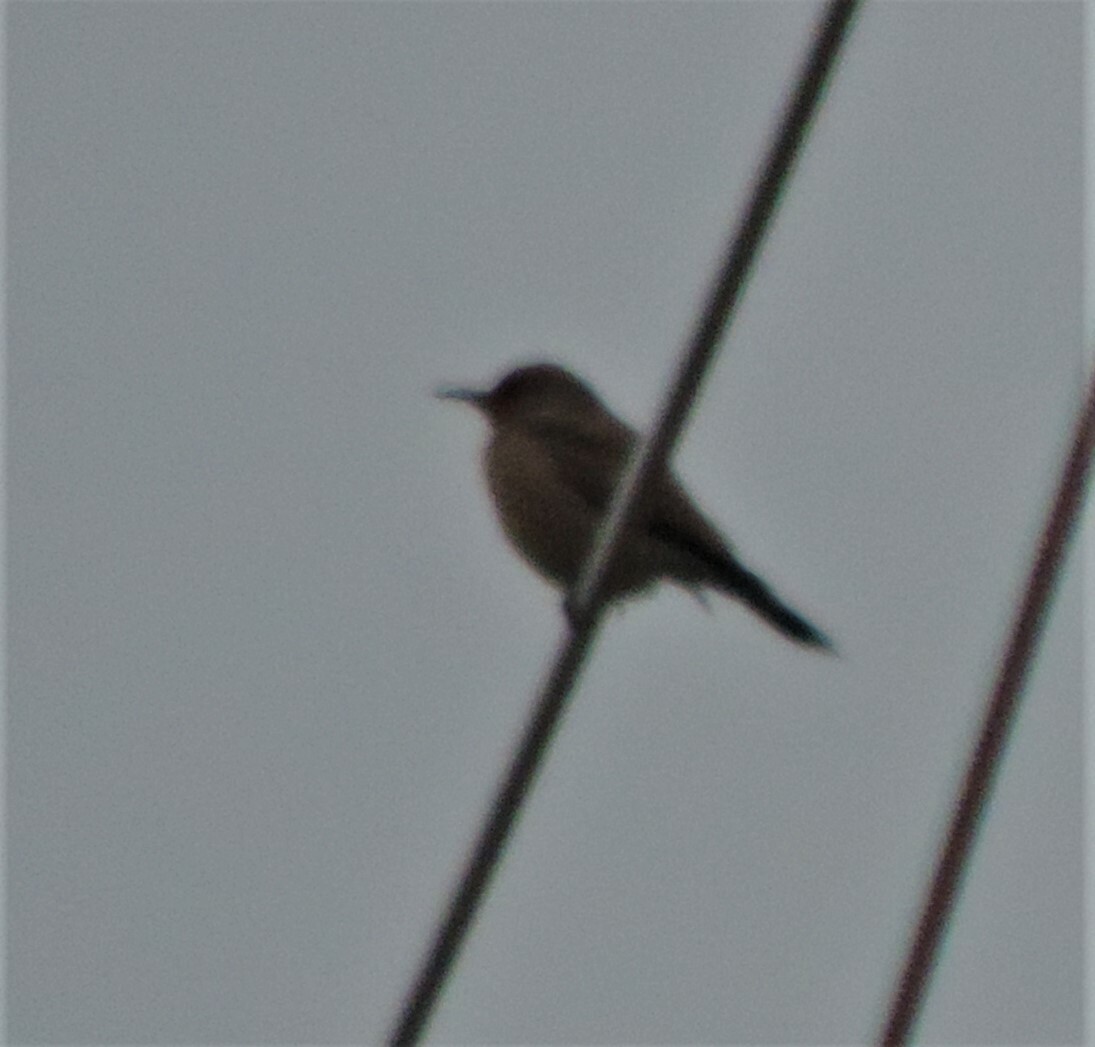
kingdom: Animalia
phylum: Chordata
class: Aves
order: Piciformes
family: Picidae
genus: Colaptes
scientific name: Colaptes auratus
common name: Northern flicker
